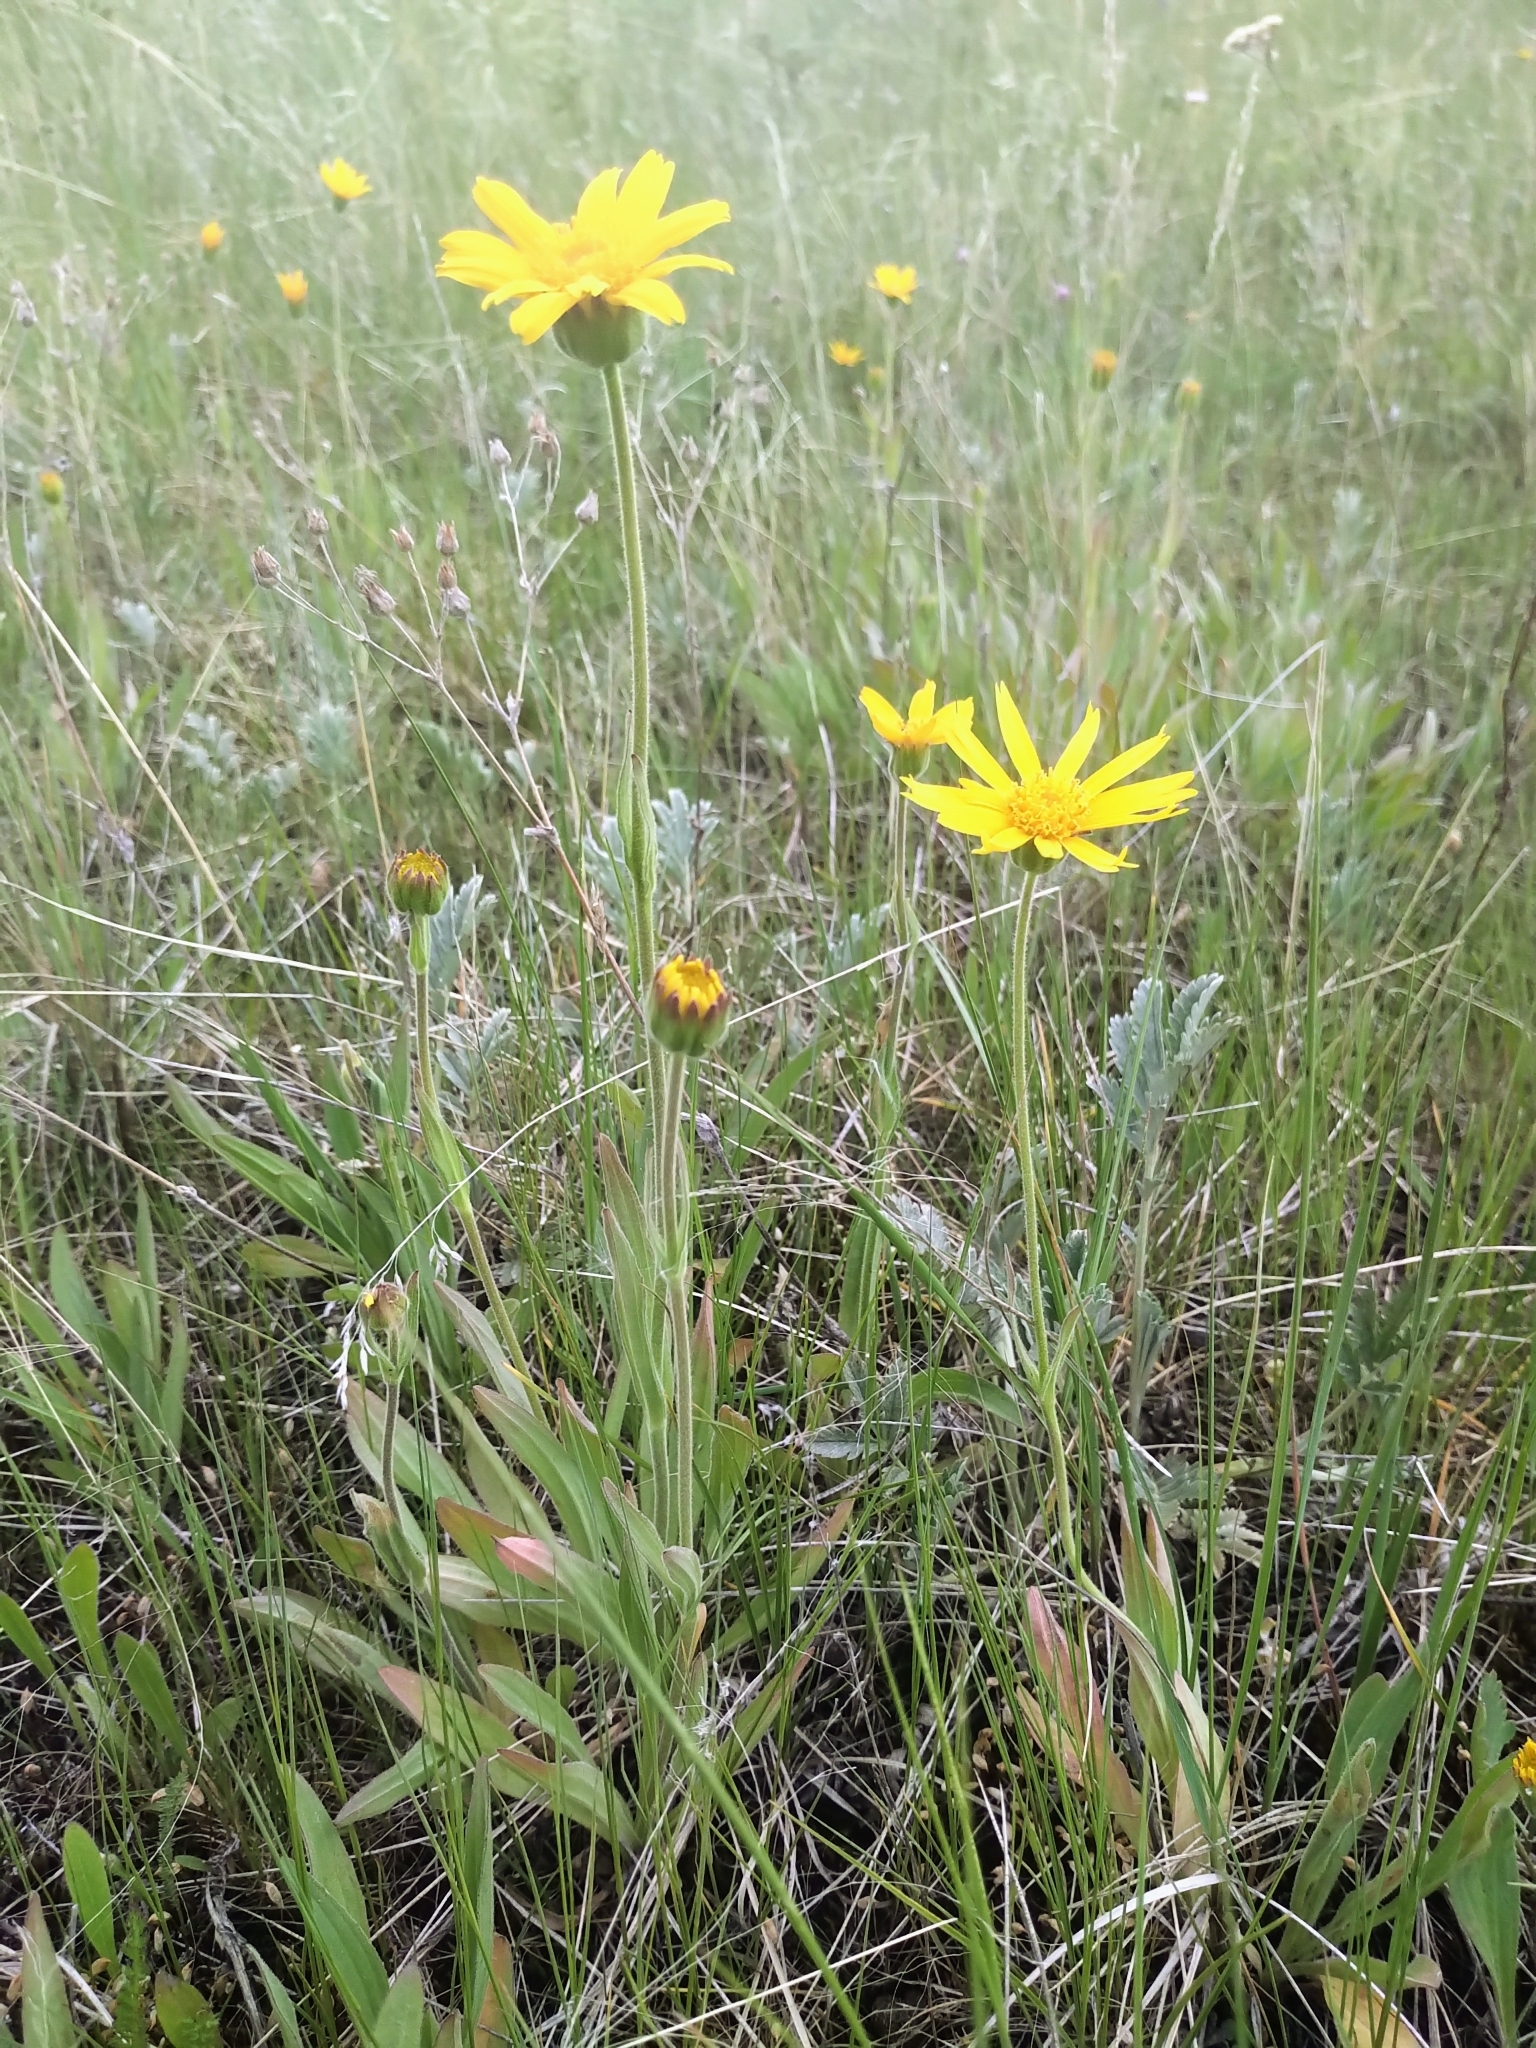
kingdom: Plantae
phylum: Tracheophyta
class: Magnoliopsida
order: Asterales
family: Asteraceae
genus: Arnica
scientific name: Arnica fulgens
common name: Foothill arnica
